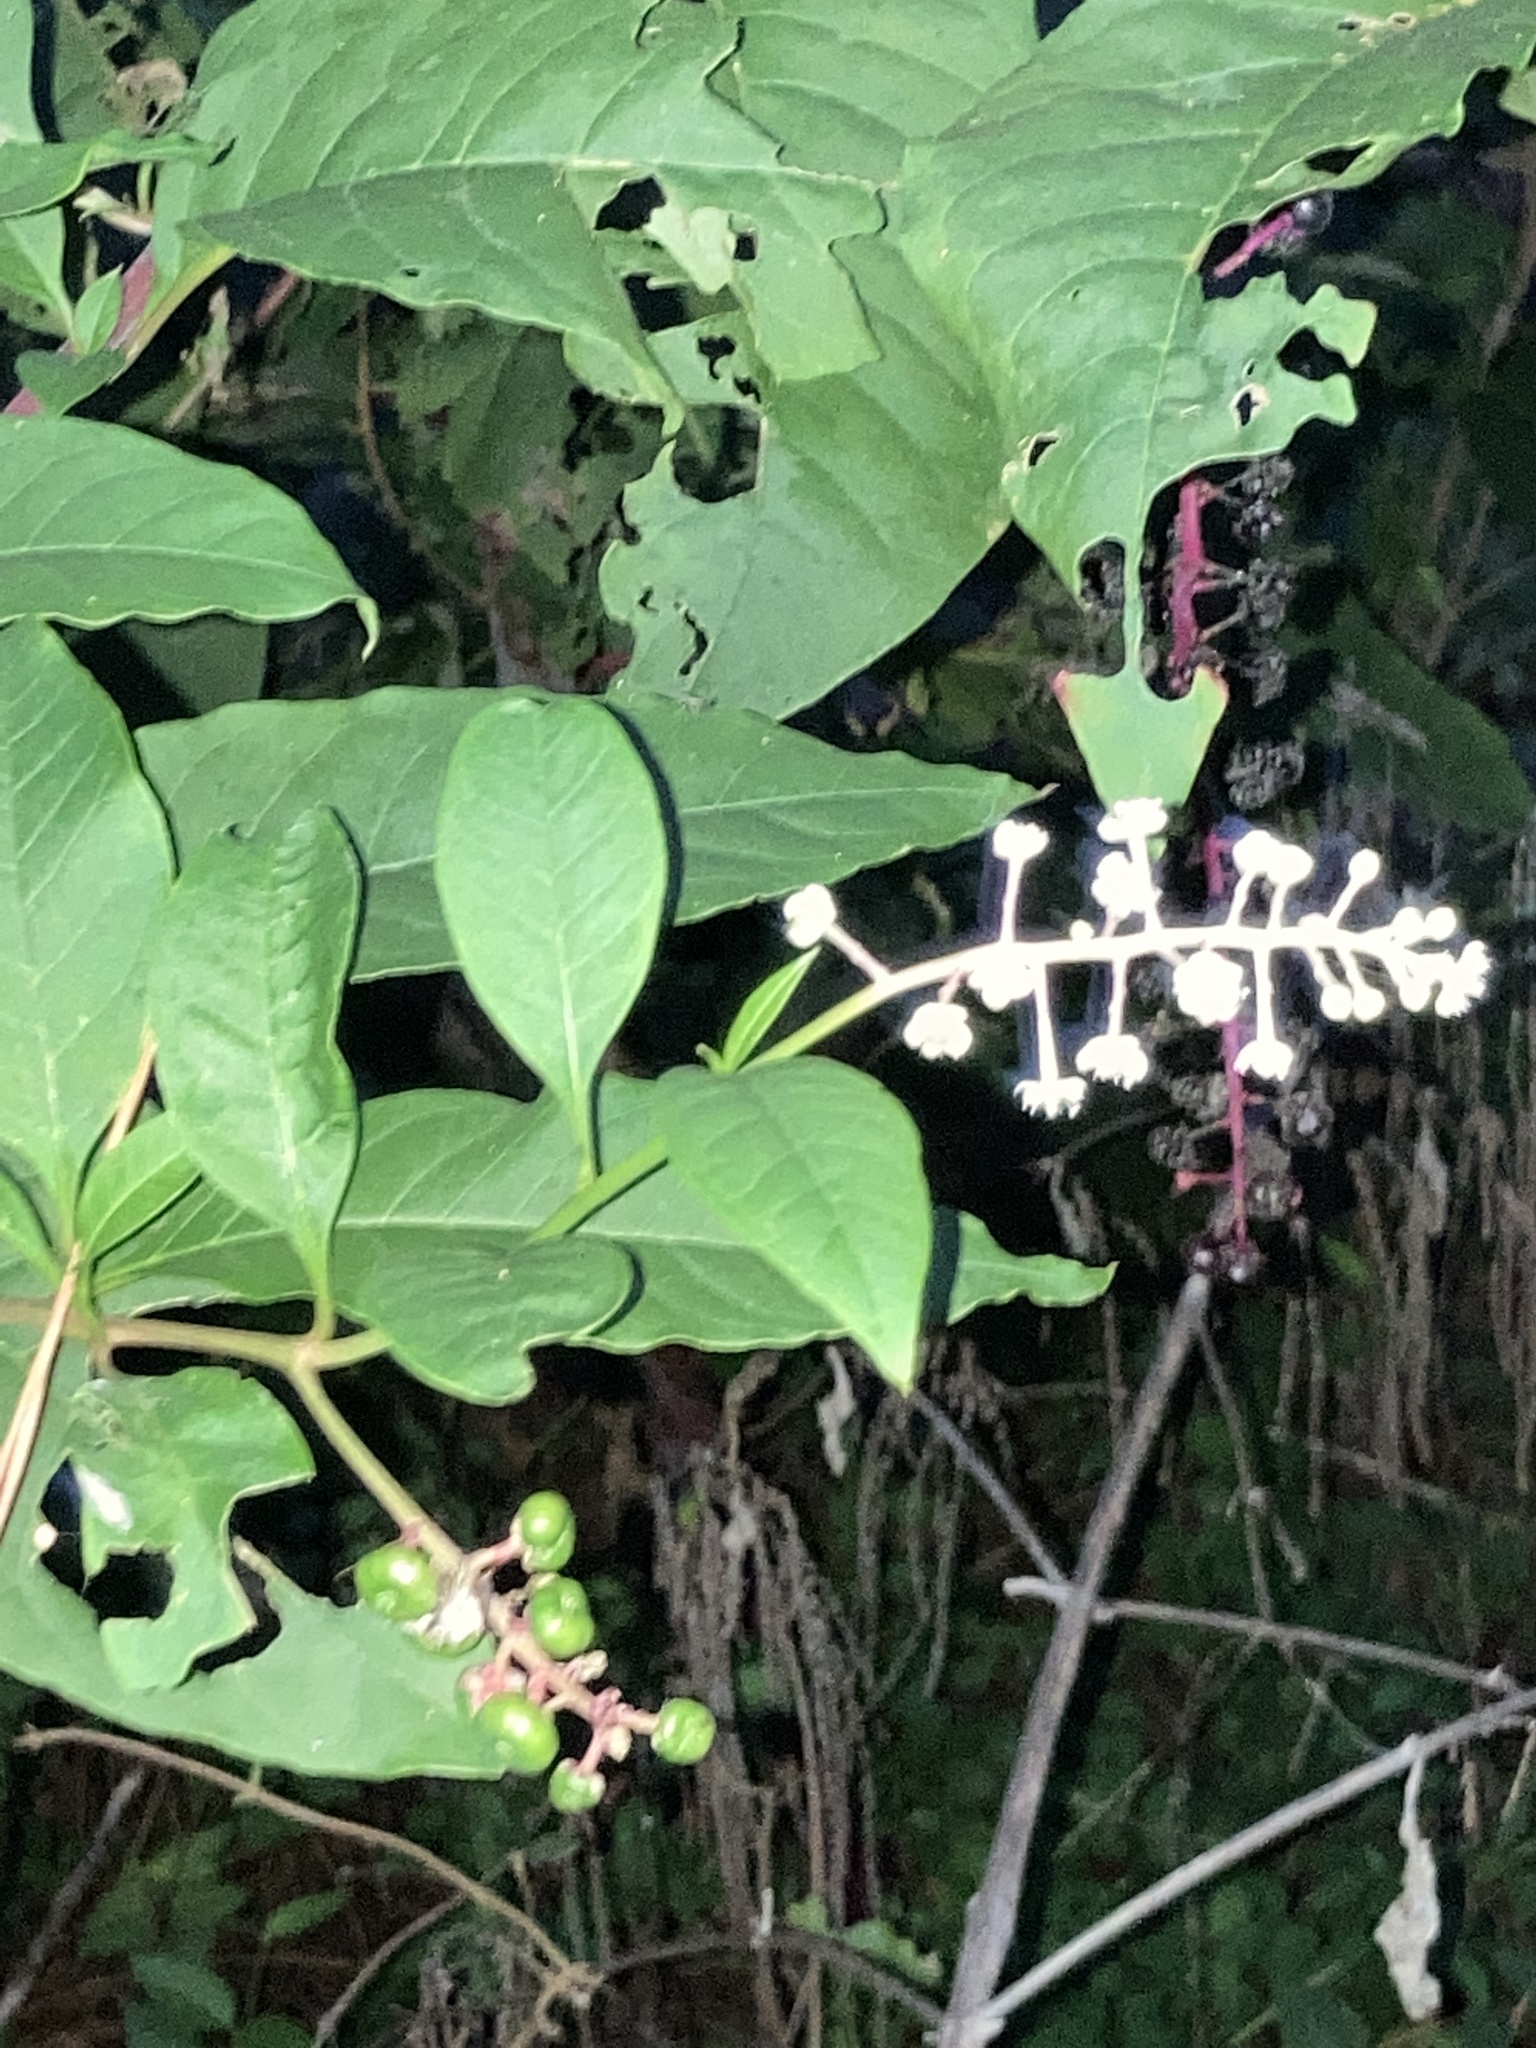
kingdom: Plantae
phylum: Tracheophyta
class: Magnoliopsida
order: Caryophyllales
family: Phytolaccaceae
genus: Phytolacca
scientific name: Phytolacca americana
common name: American pokeweed
